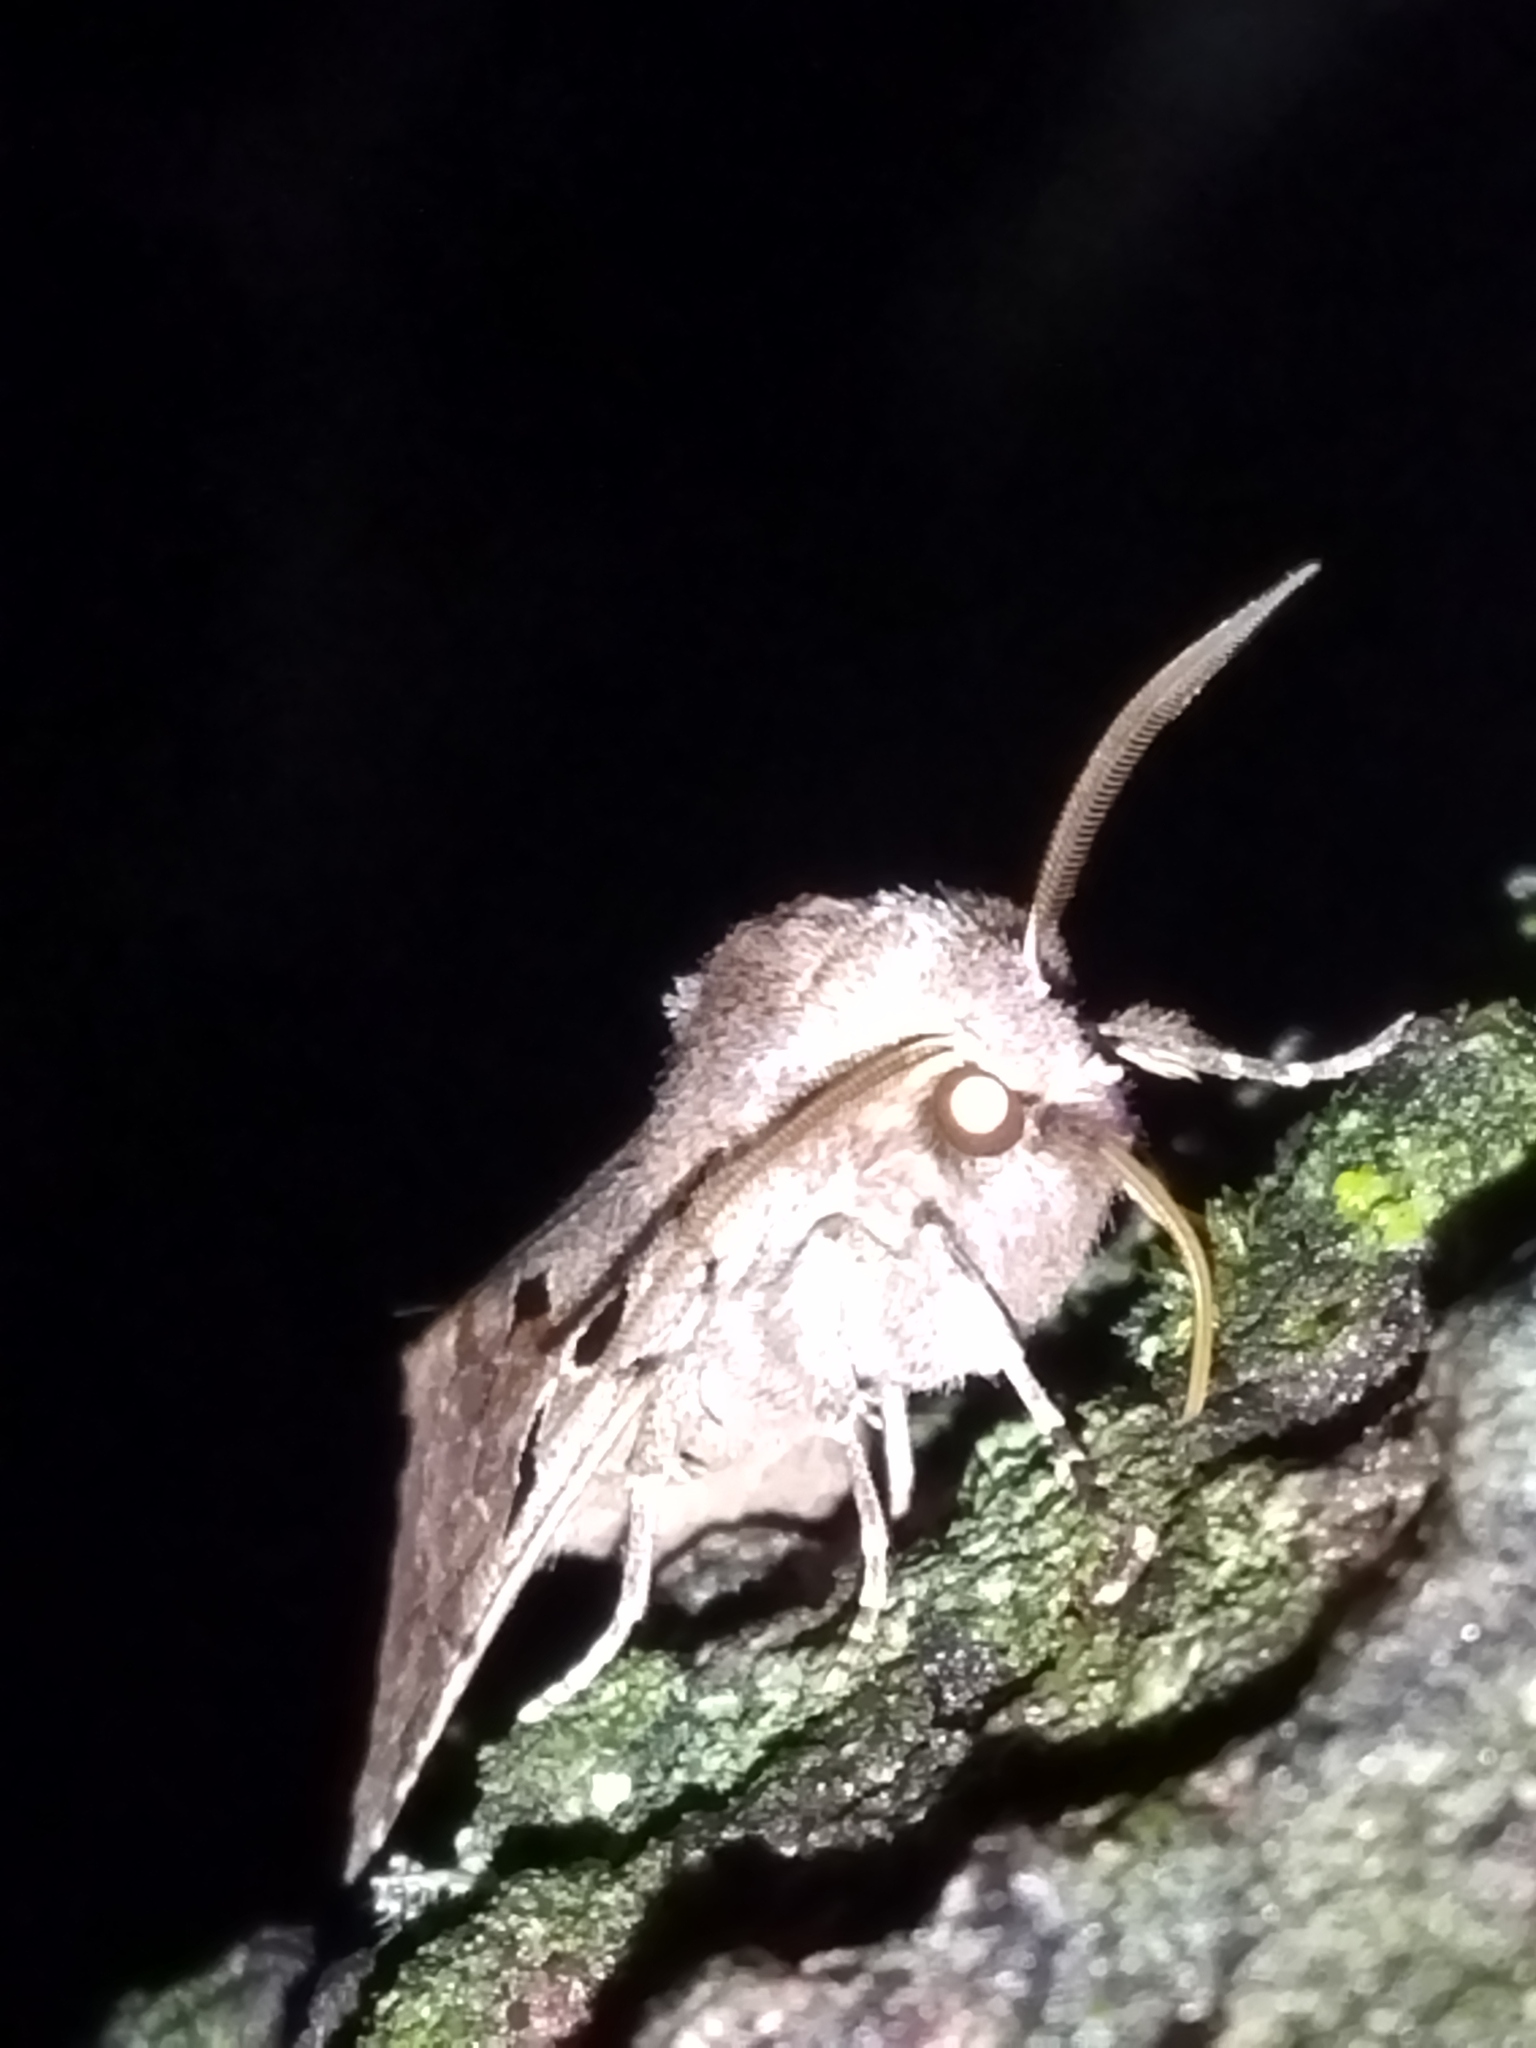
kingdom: Animalia
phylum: Arthropoda
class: Insecta
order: Lepidoptera
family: Noctuidae
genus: Orthosia
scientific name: Orthosia gothica
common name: Hebrew character
